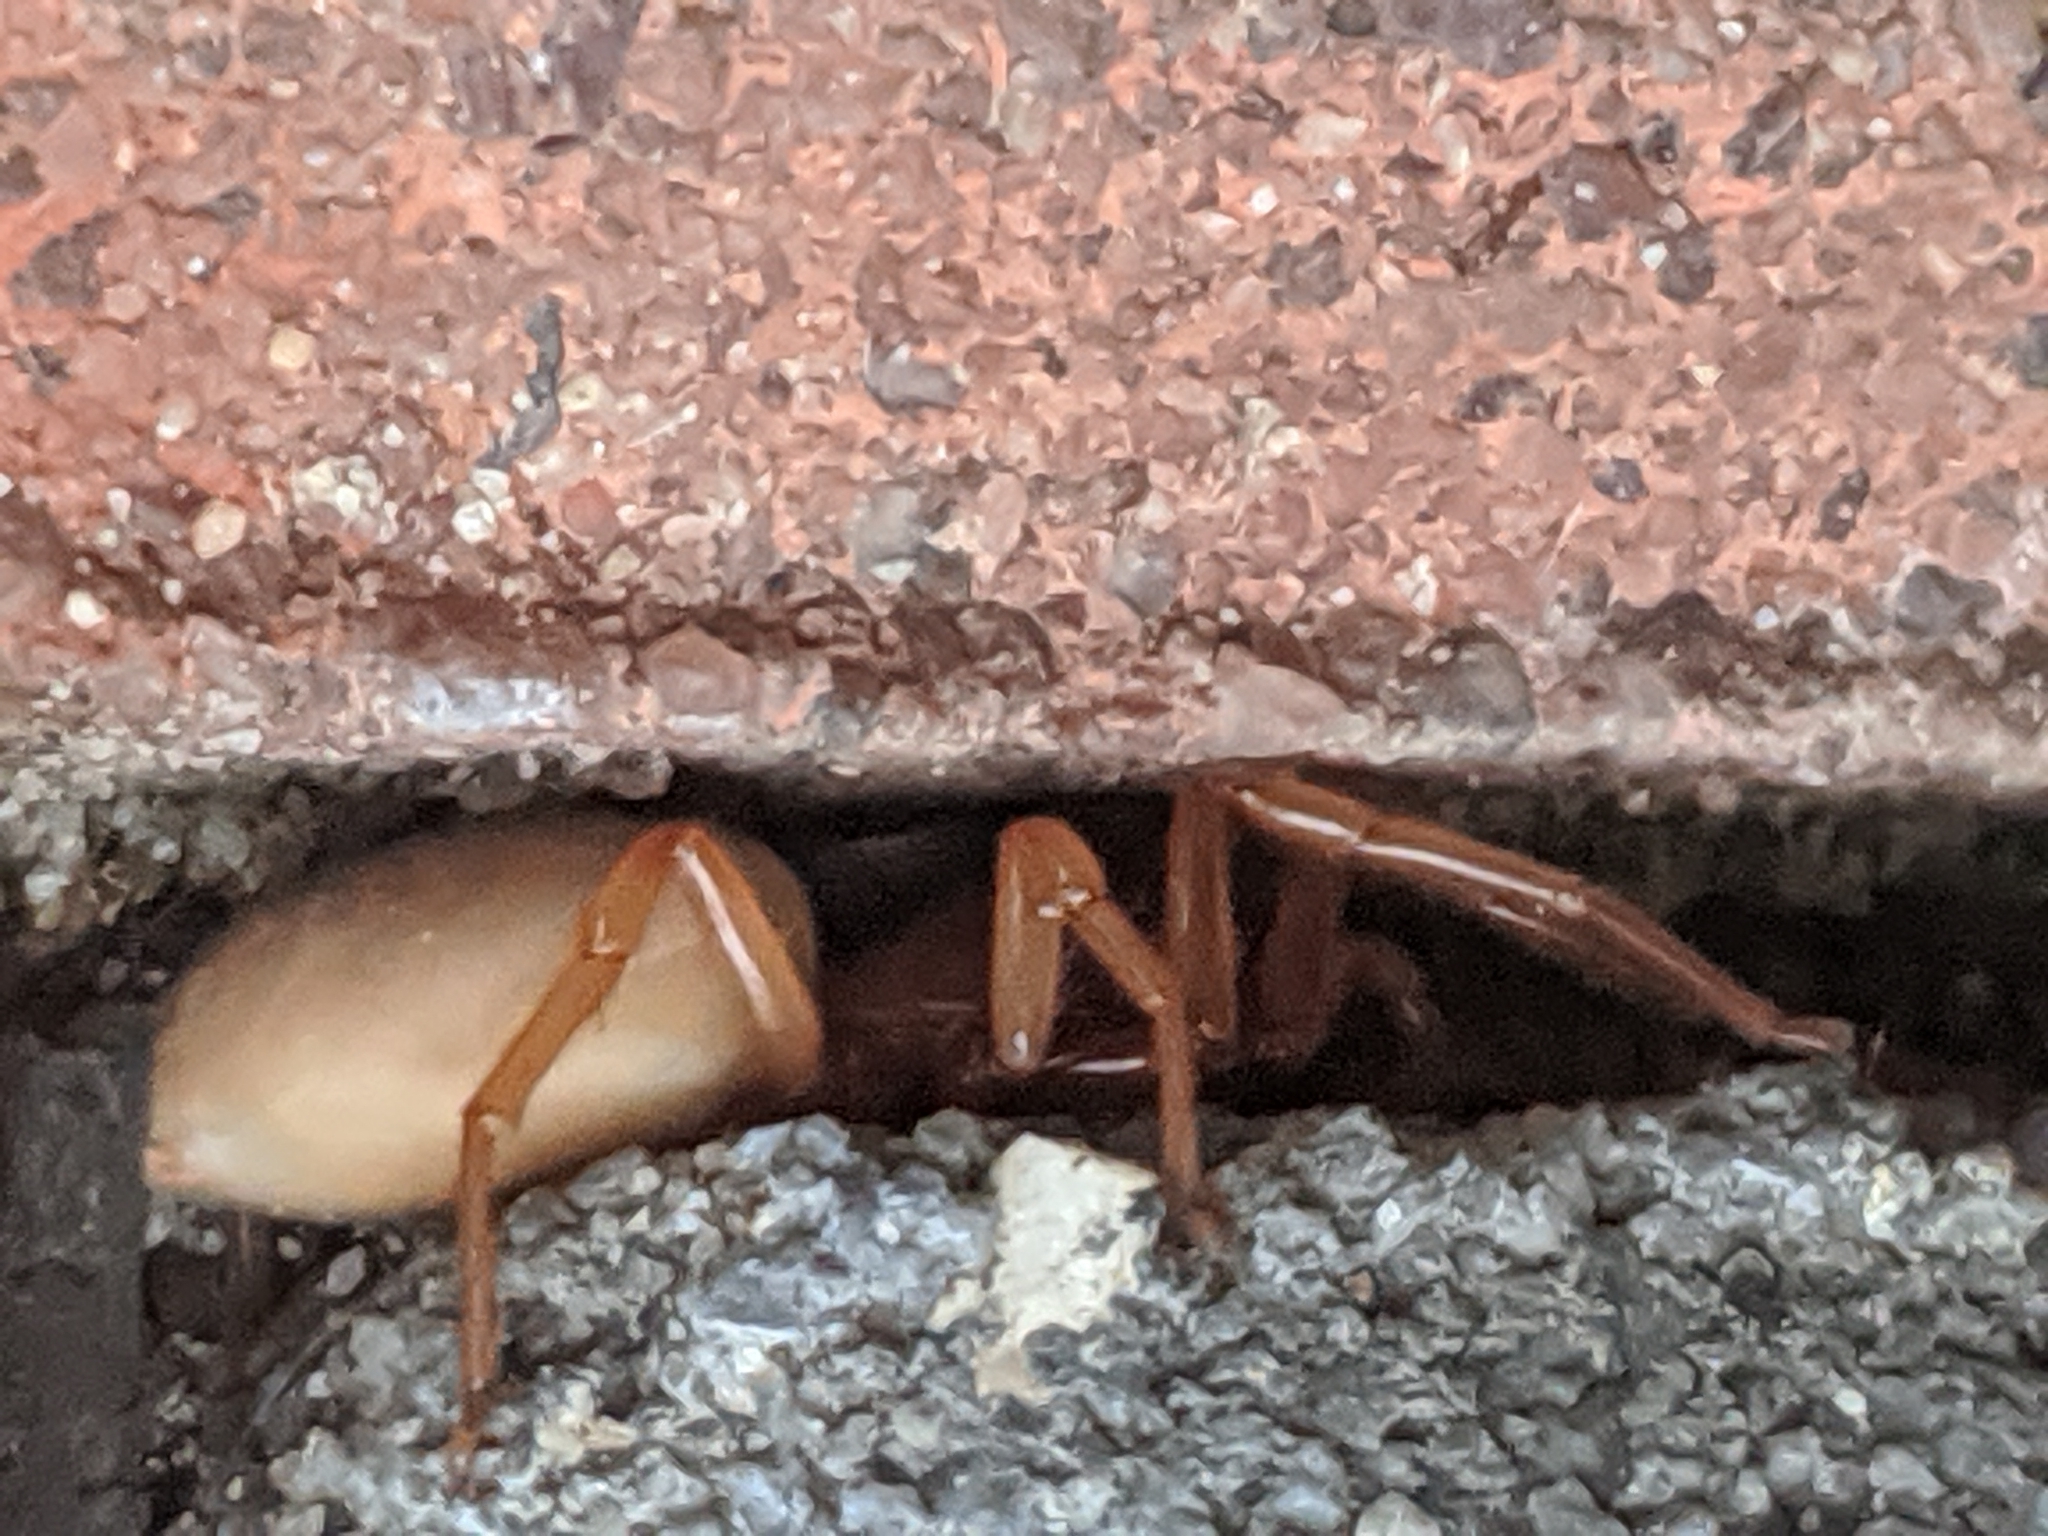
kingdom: Animalia
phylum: Arthropoda
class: Arachnida
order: Araneae
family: Dysderidae
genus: Dysdera
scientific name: Dysdera crocata
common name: Woodlouse spider
